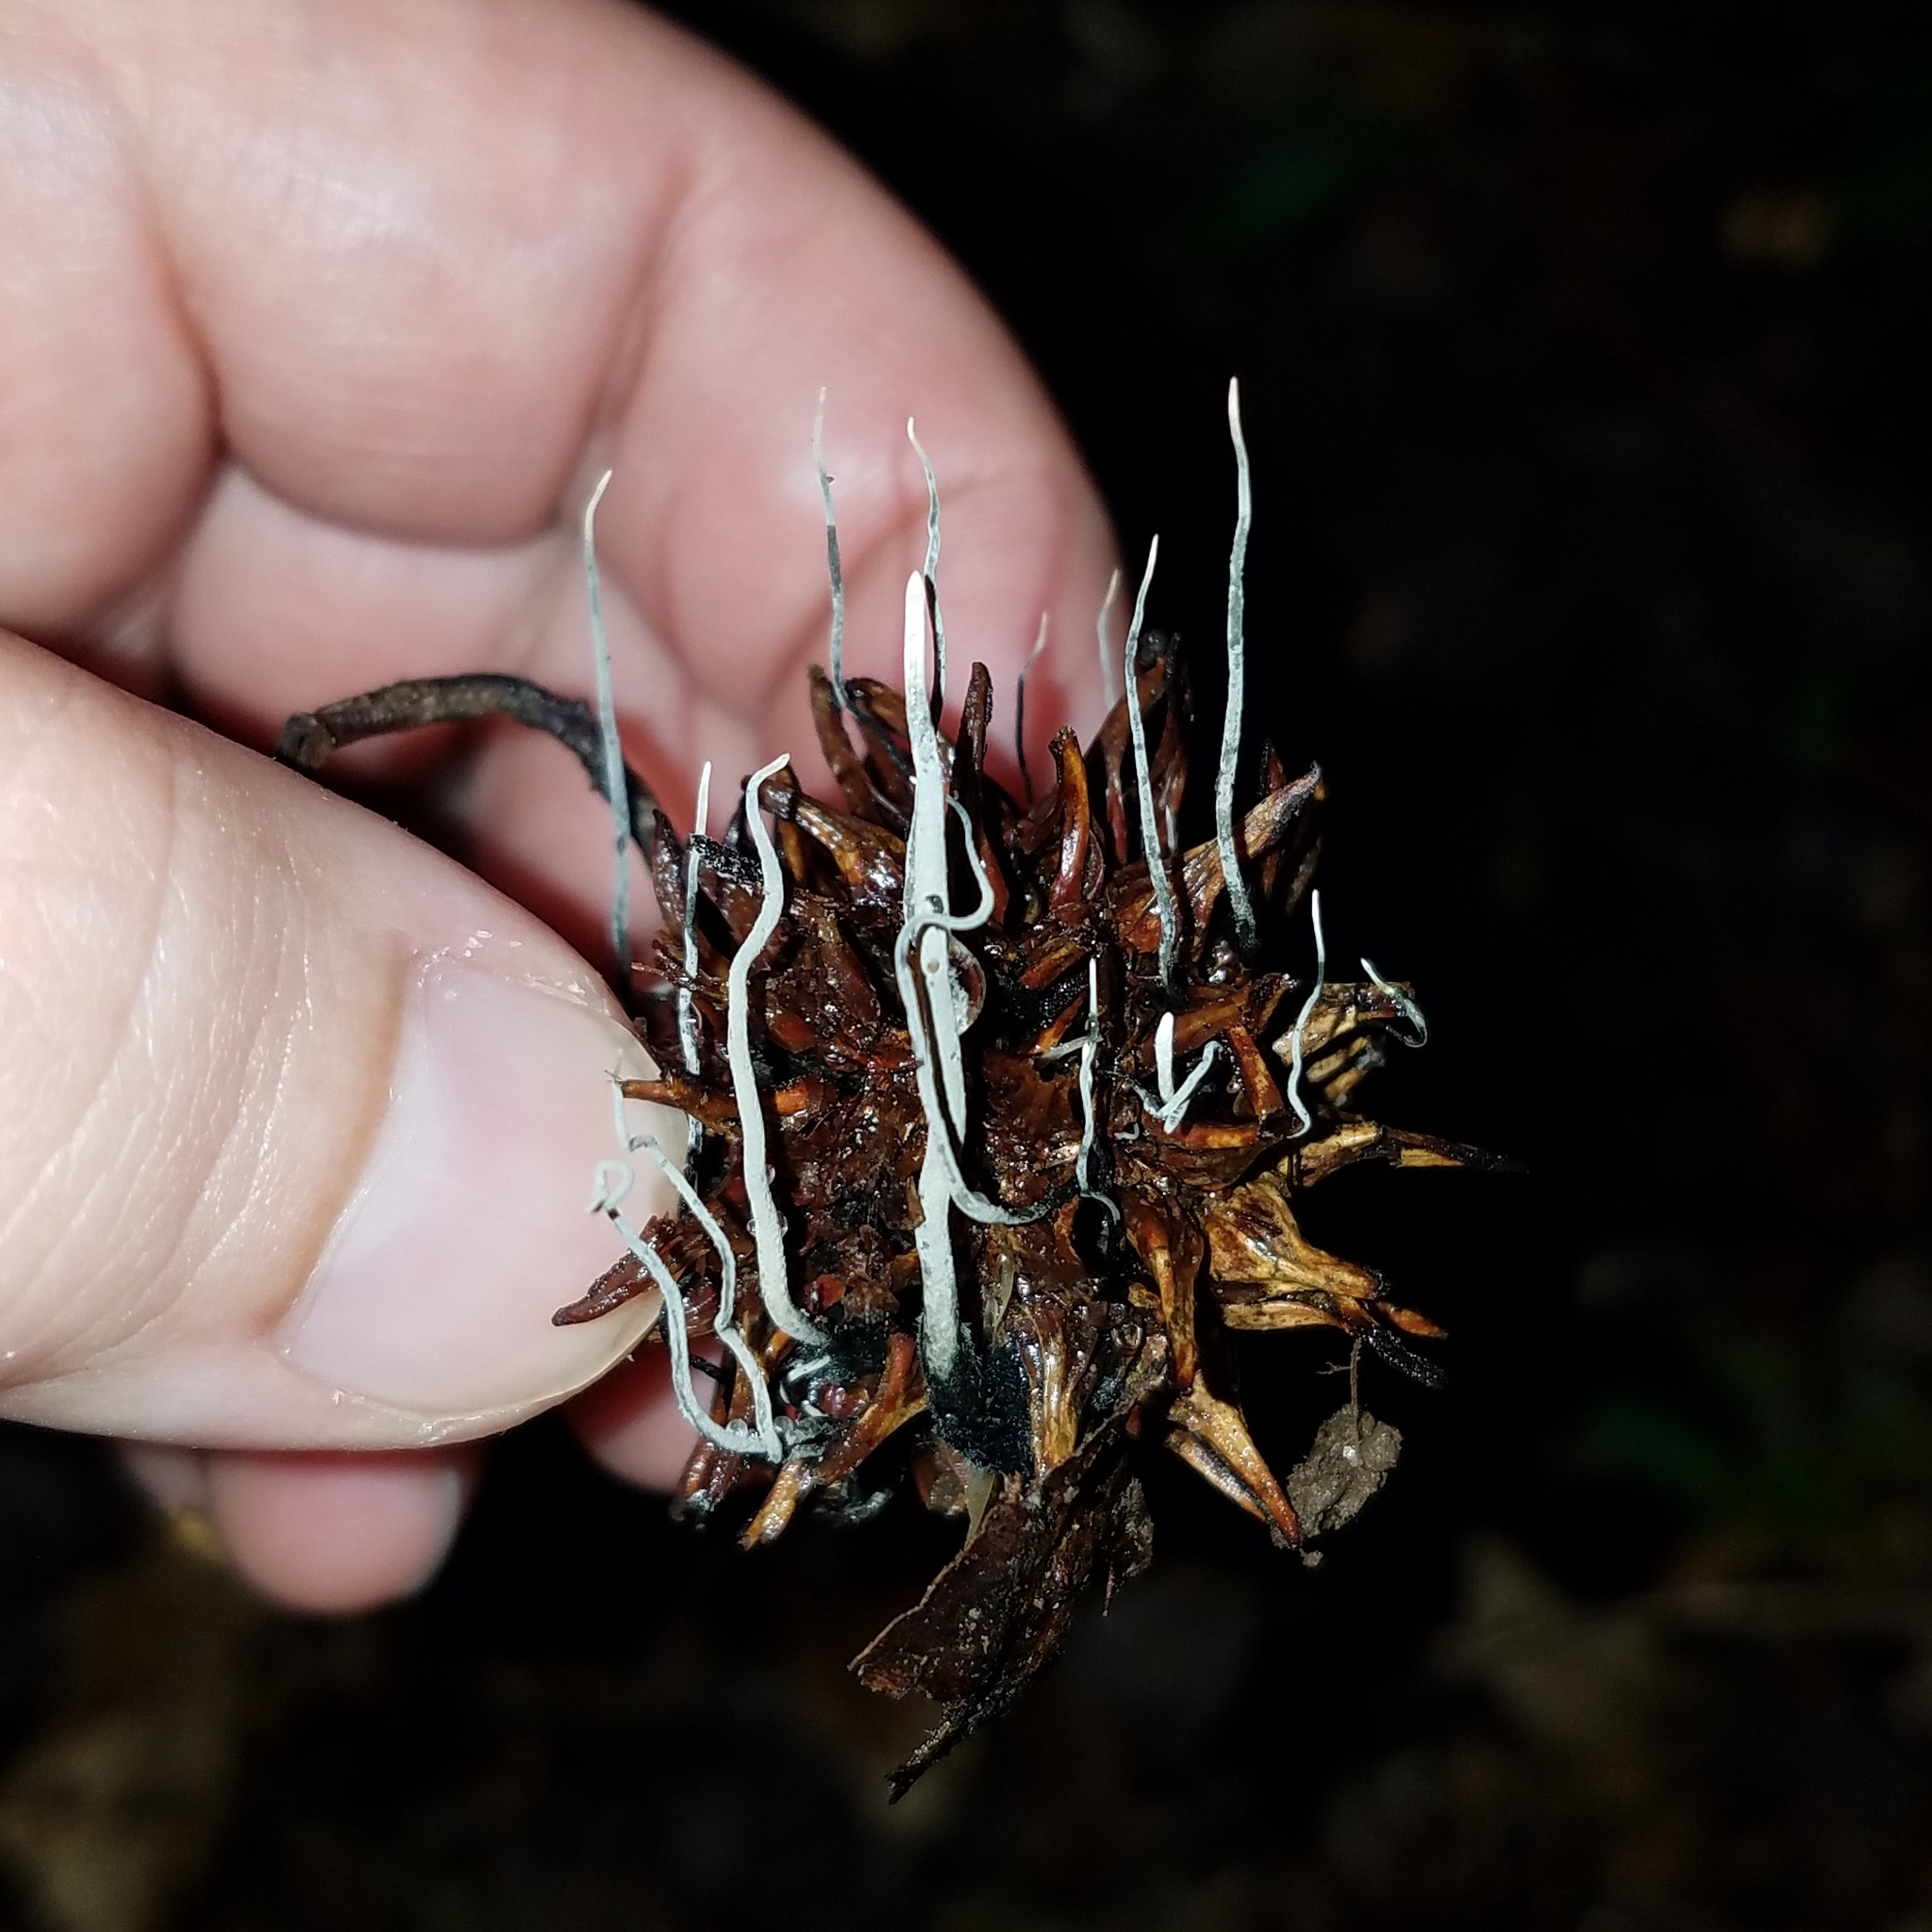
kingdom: Fungi
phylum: Ascomycota
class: Sordariomycetes
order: Xylariales
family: Xylariaceae
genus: Xylaria
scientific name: Xylaria liquidambaris
